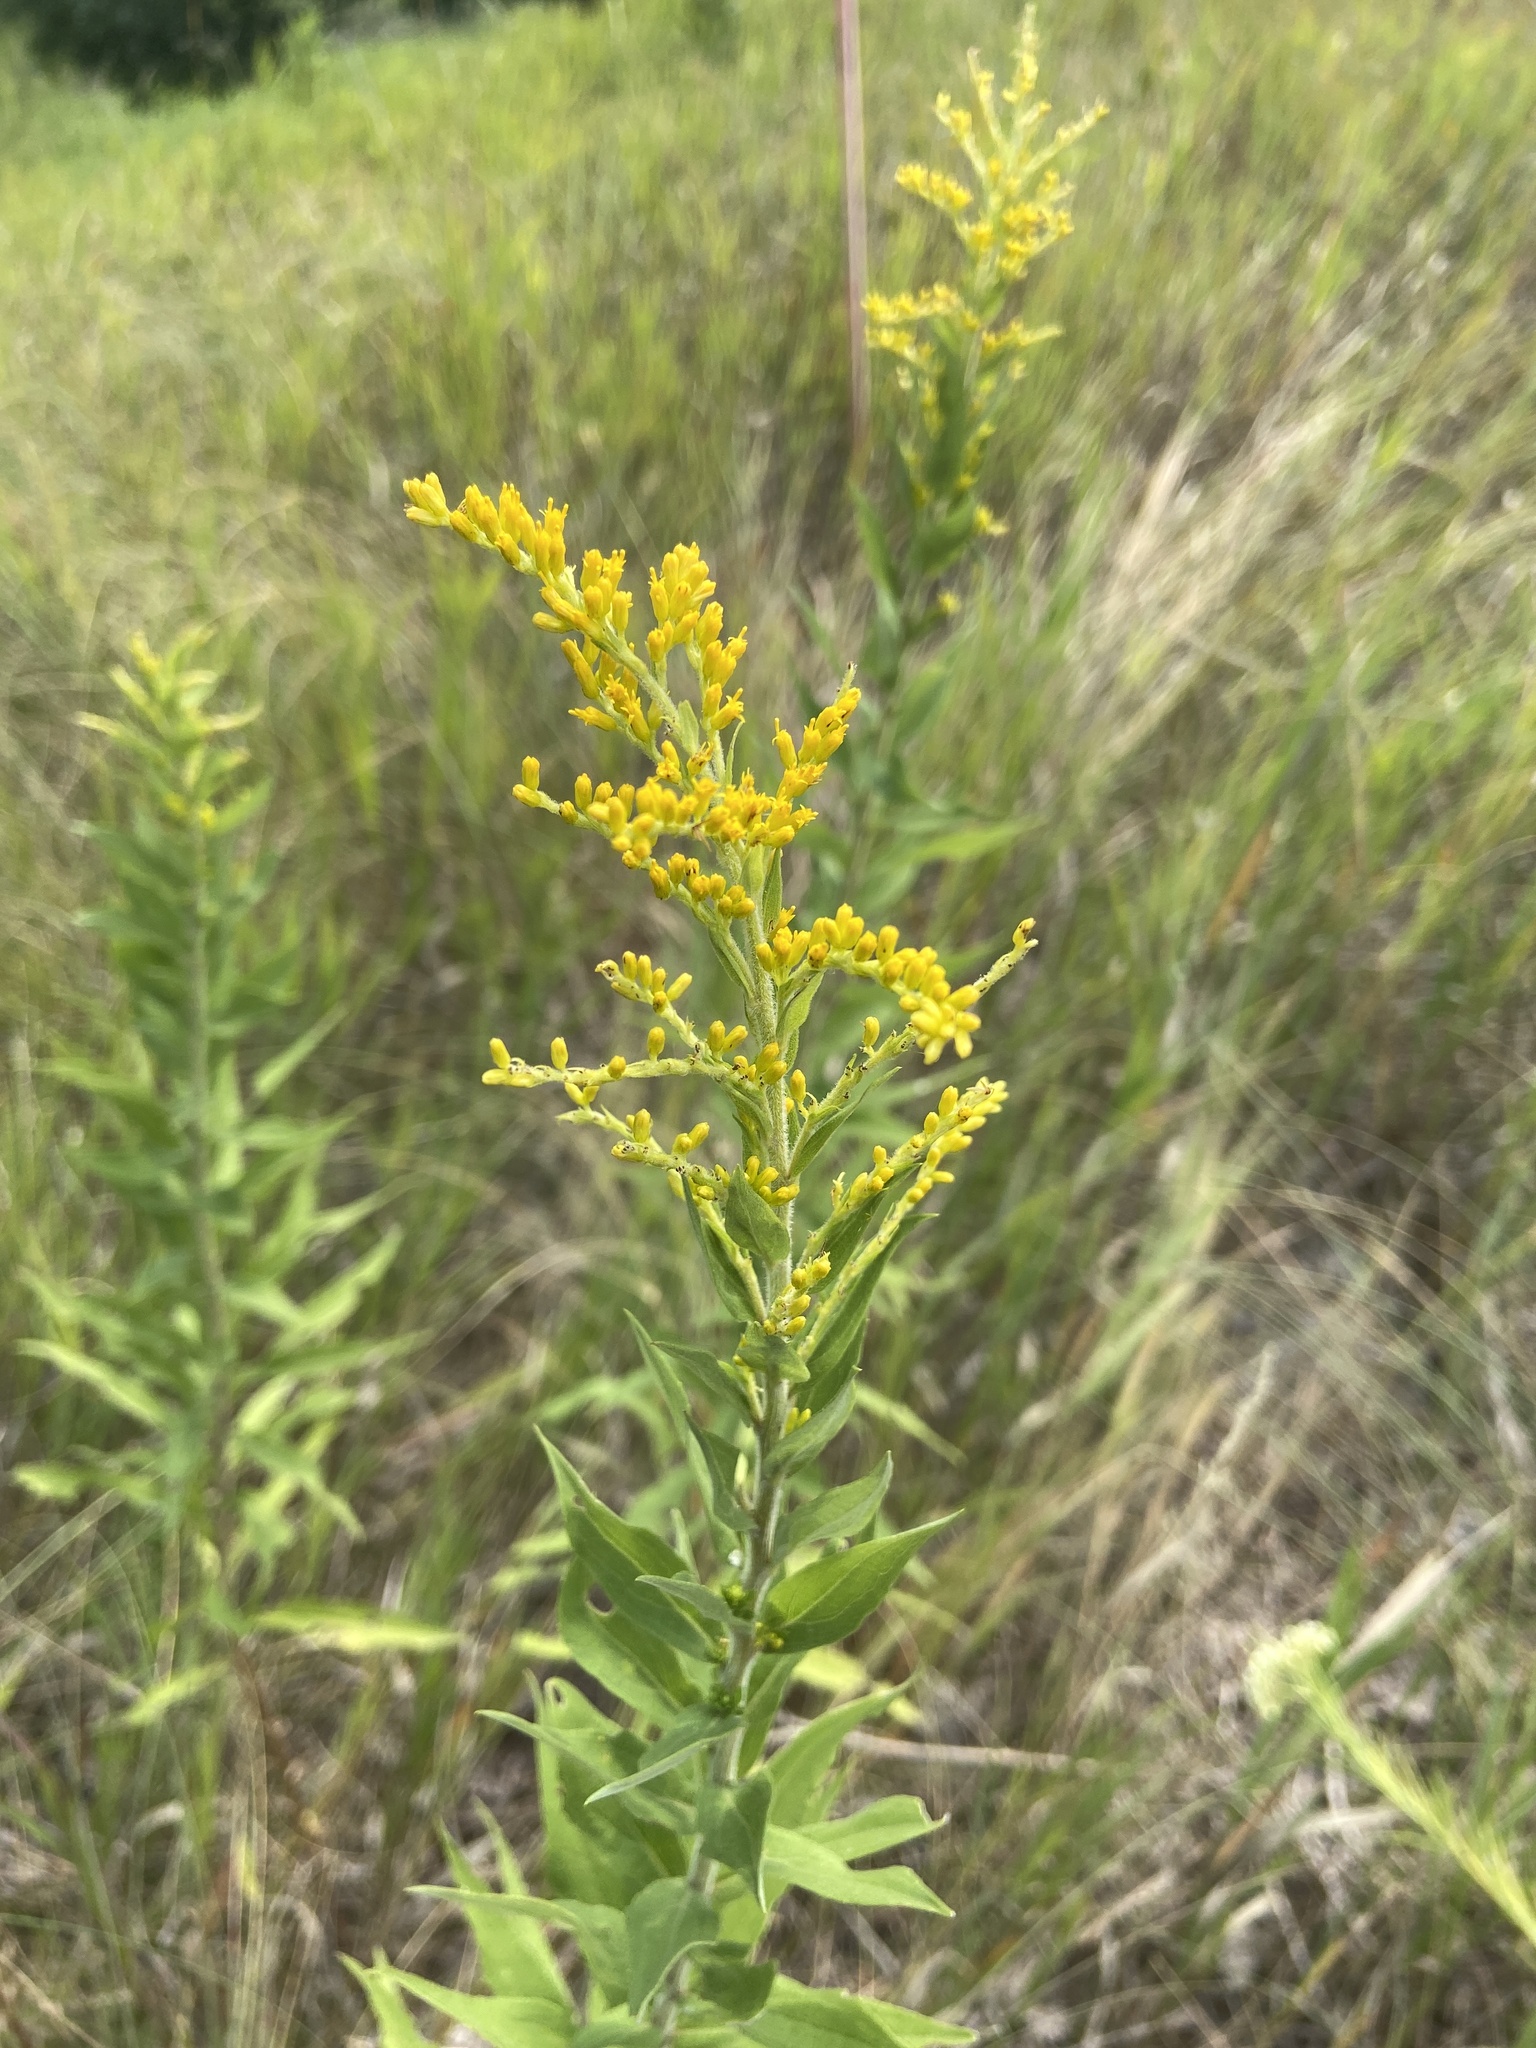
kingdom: Plantae
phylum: Tracheophyta
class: Magnoliopsida
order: Asterales
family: Asteraceae
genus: Solidago
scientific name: Solidago canadensis
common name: Canada goldenrod
